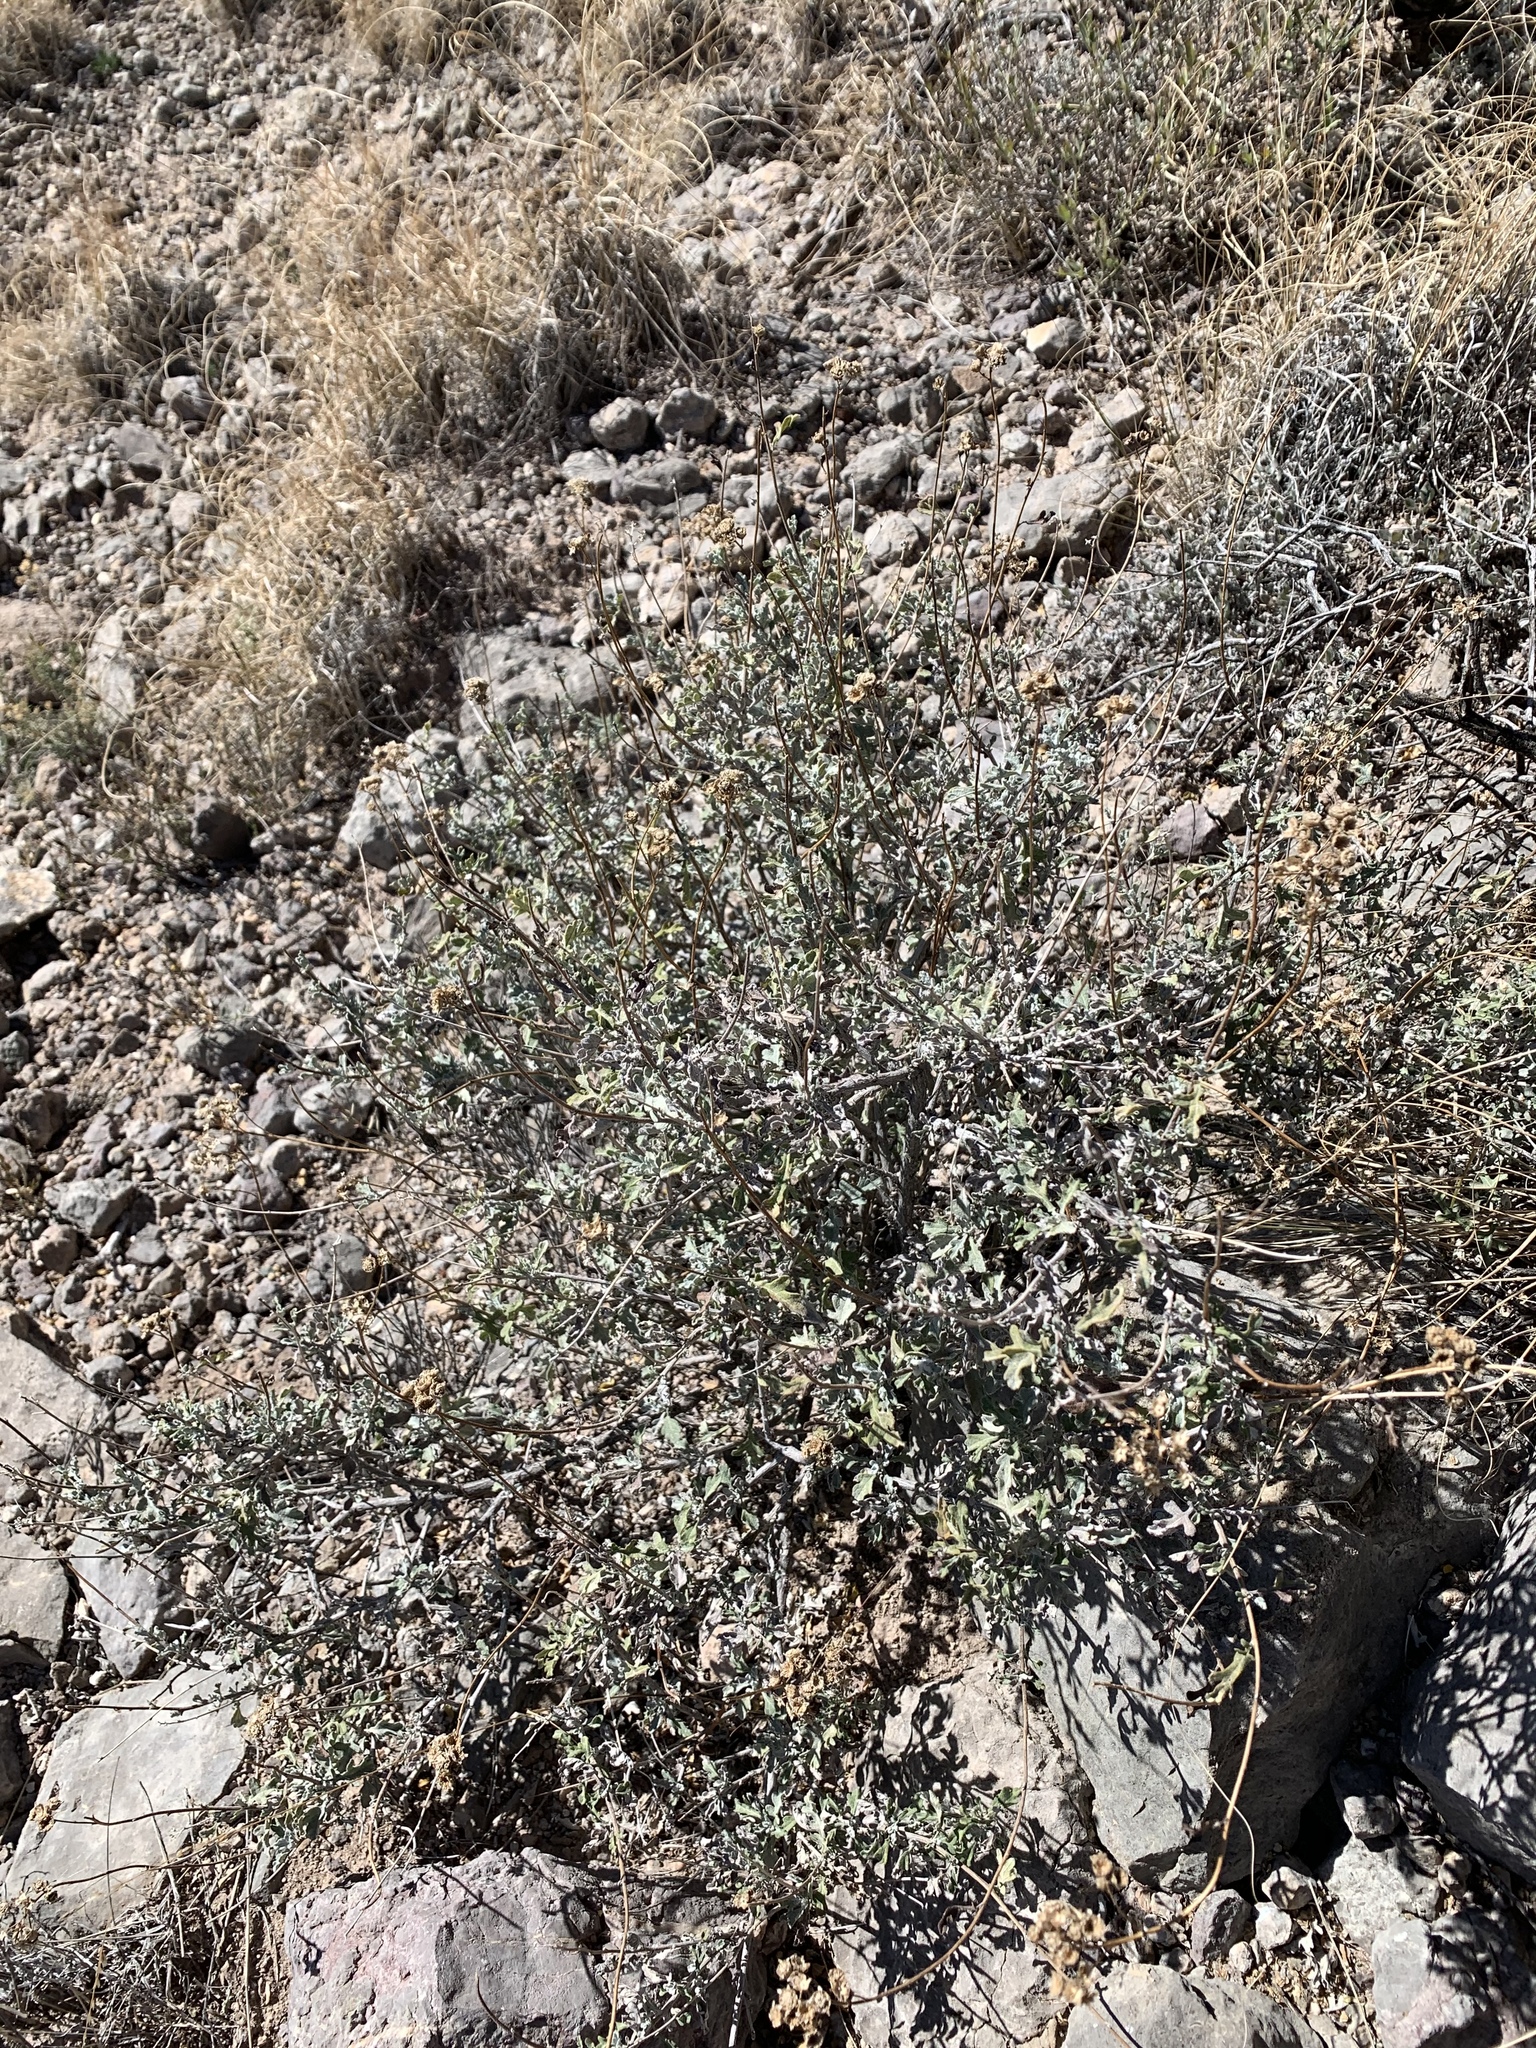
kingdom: Plantae
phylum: Tracheophyta
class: Magnoliopsida
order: Asterales
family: Asteraceae
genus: Parthenium
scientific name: Parthenium incanum
